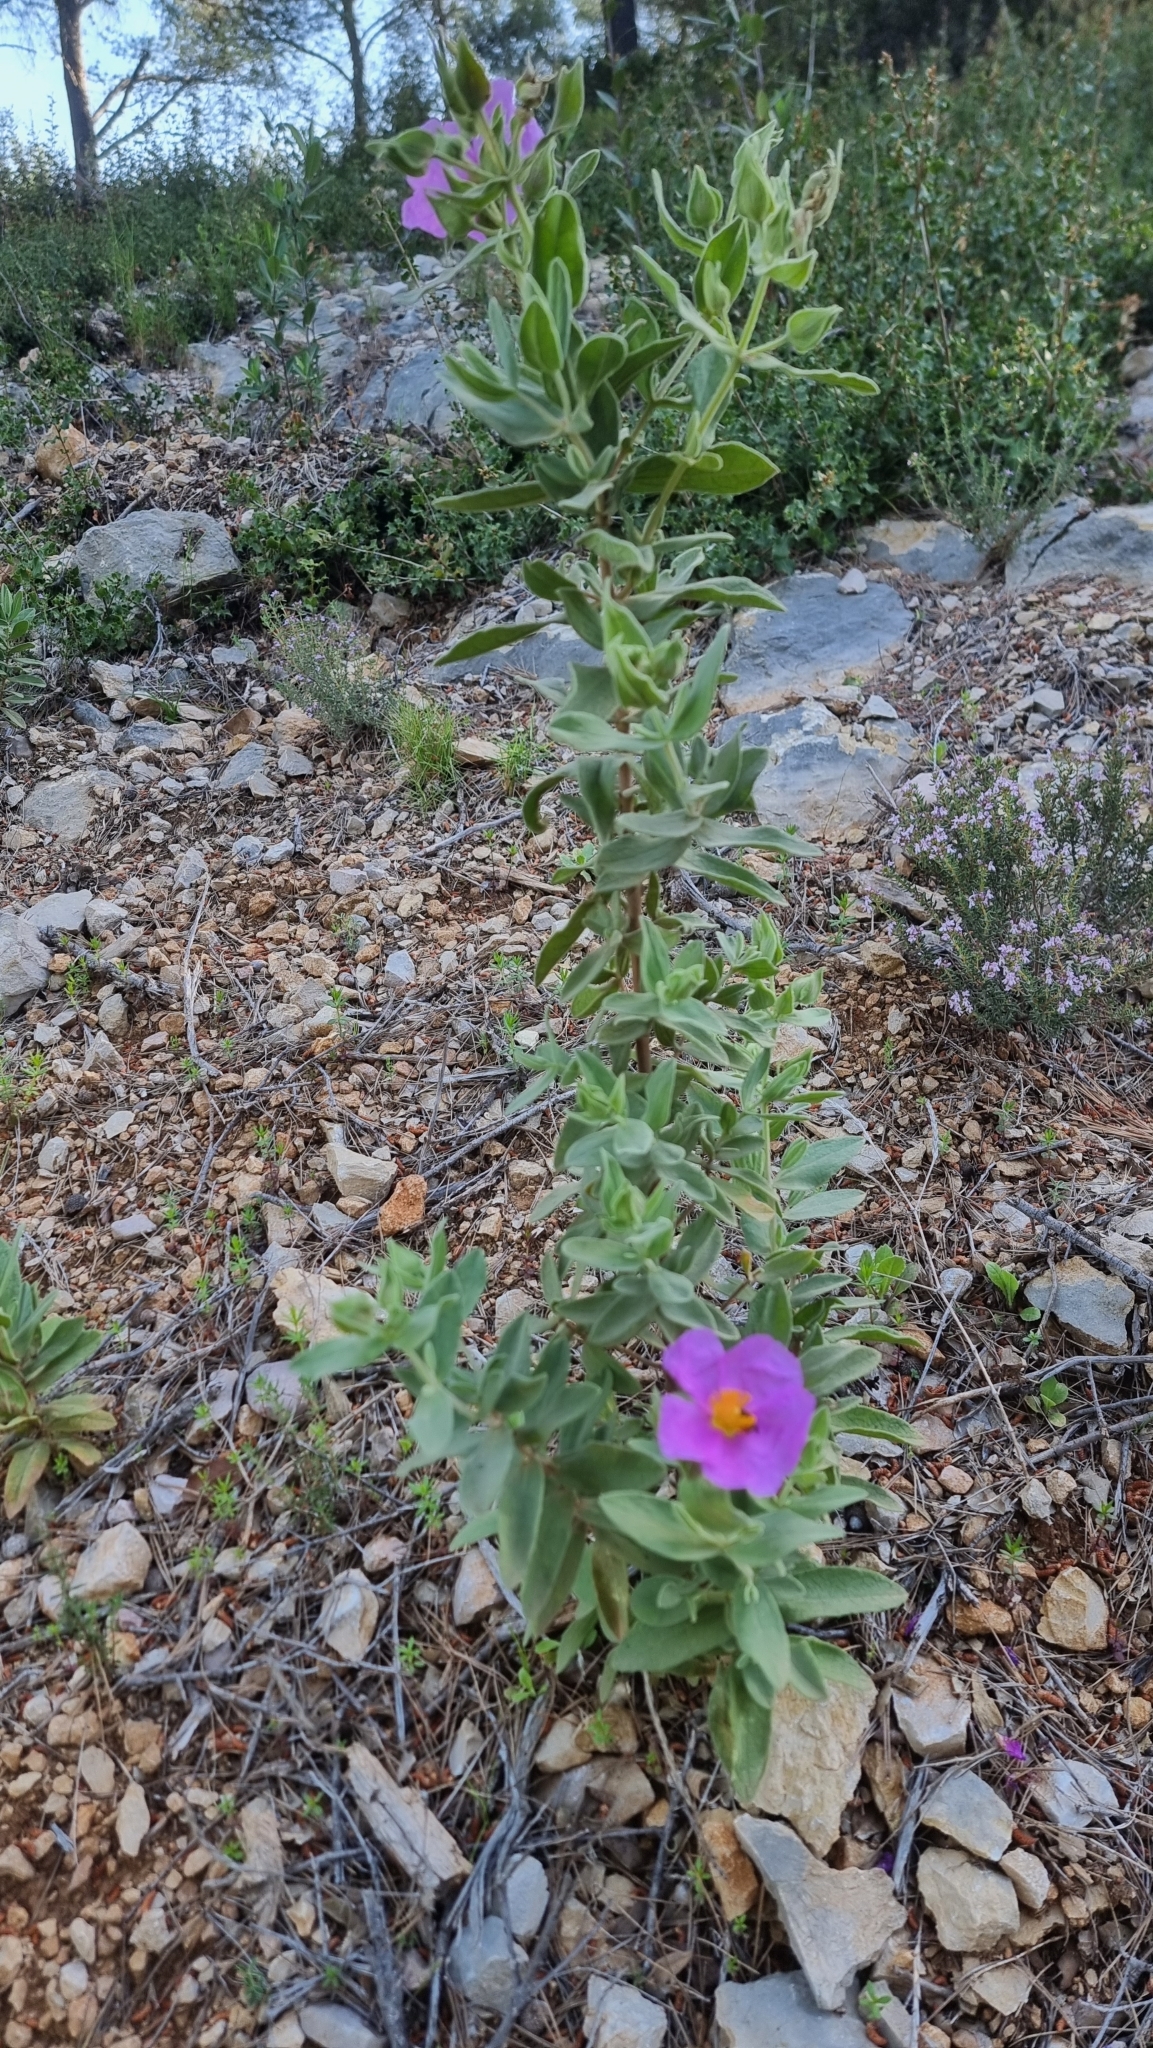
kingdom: Plantae
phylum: Tracheophyta
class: Magnoliopsida
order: Malvales
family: Cistaceae
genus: Cistus
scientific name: Cistus albidus
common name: White-leaf rock-rose
